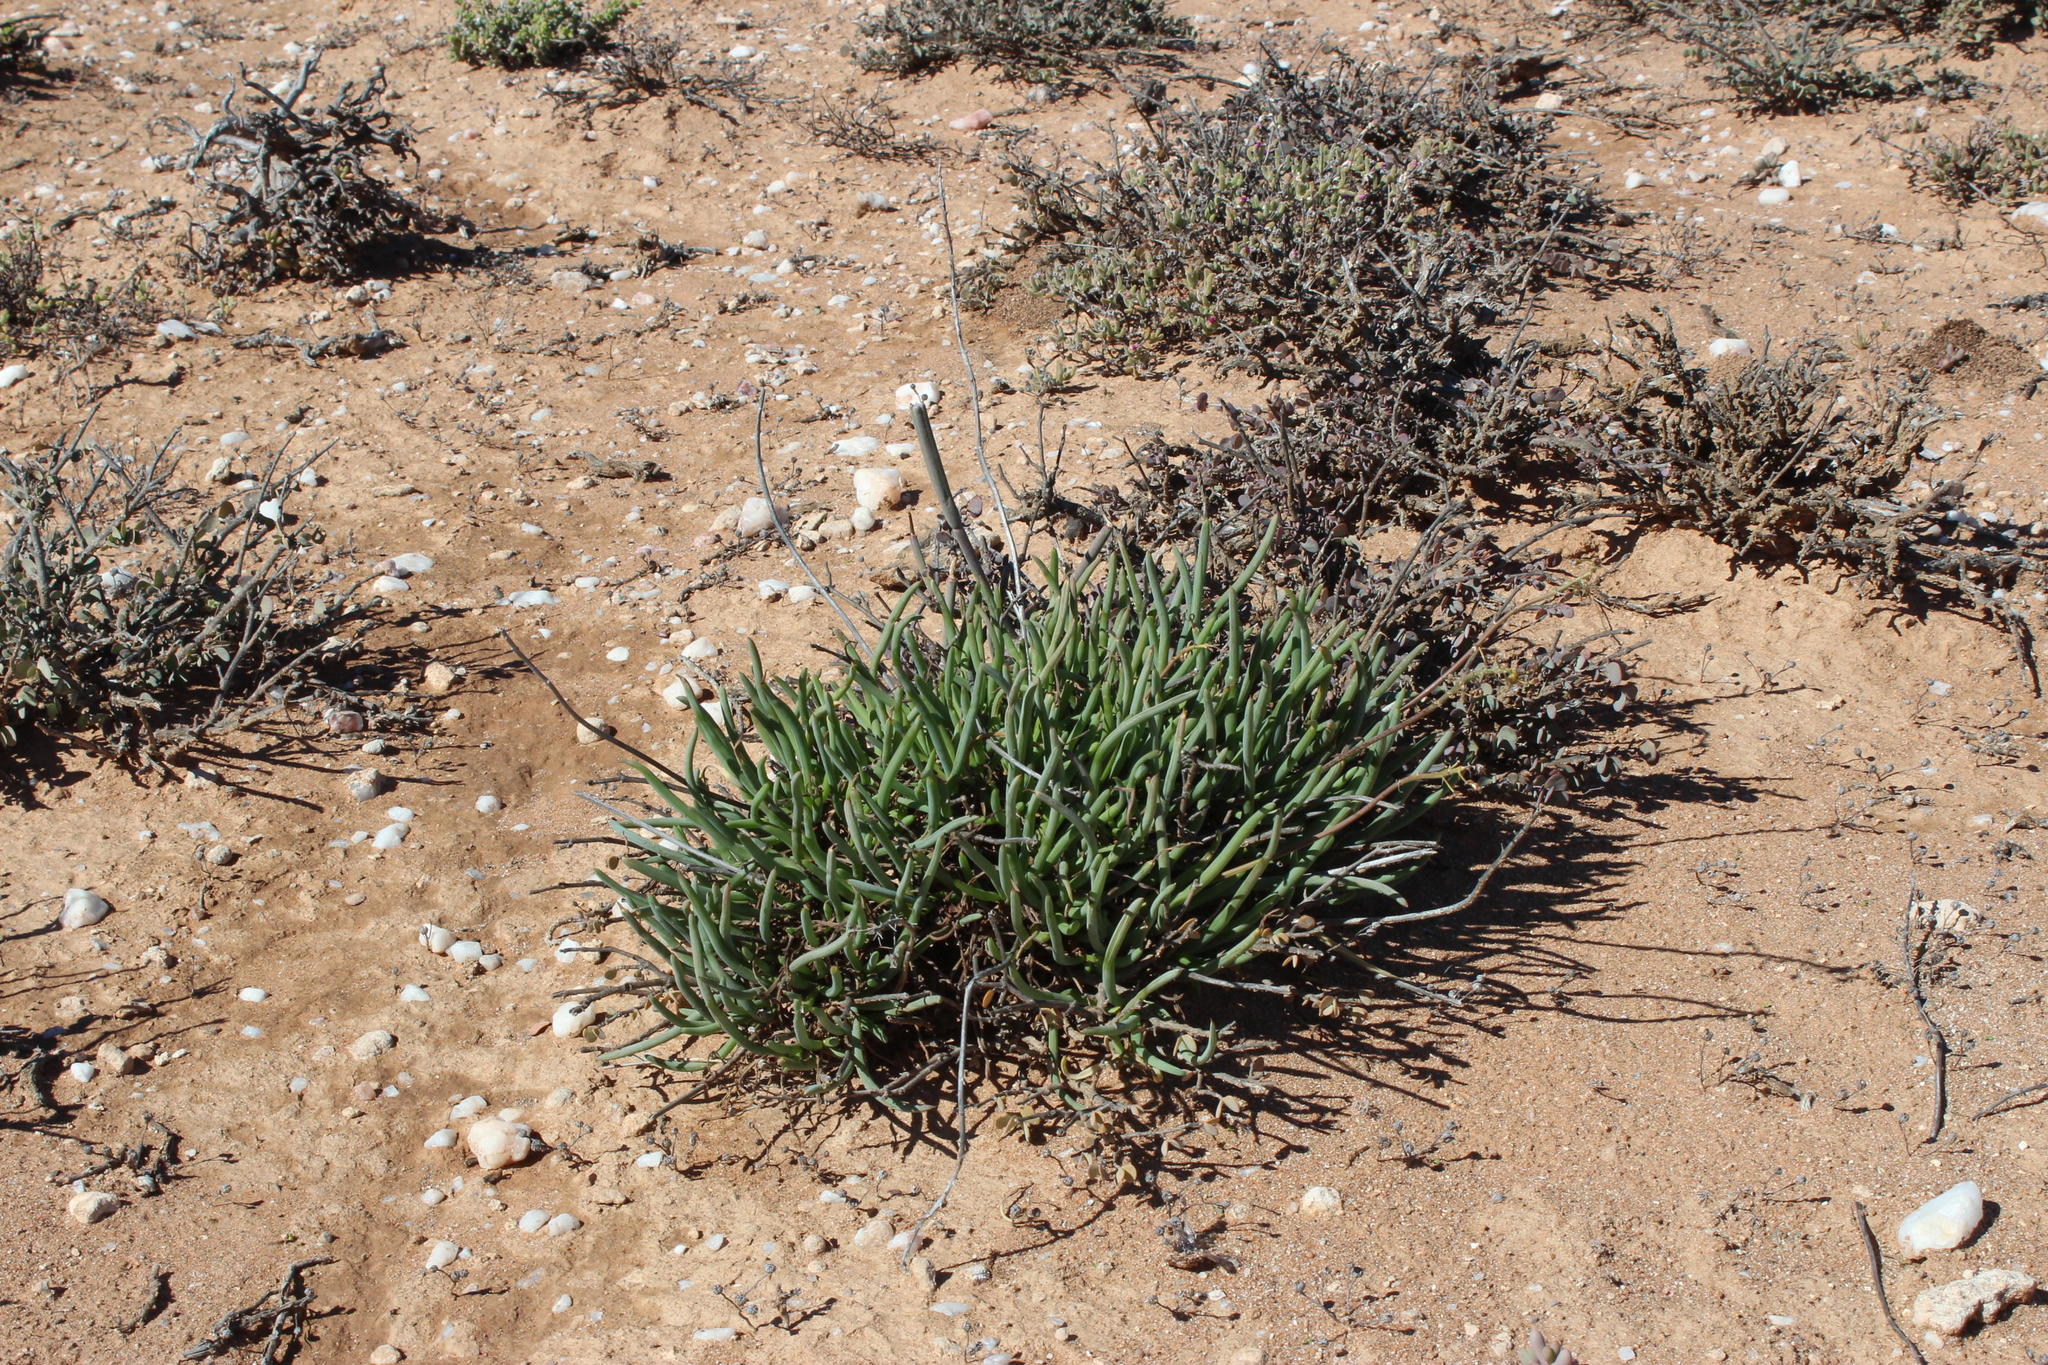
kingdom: Plantae
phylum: Tracheophyta
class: Liliopsida
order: Asparagales
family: Asphodelaceae
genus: Bulbine
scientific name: Bulbine frutescens
